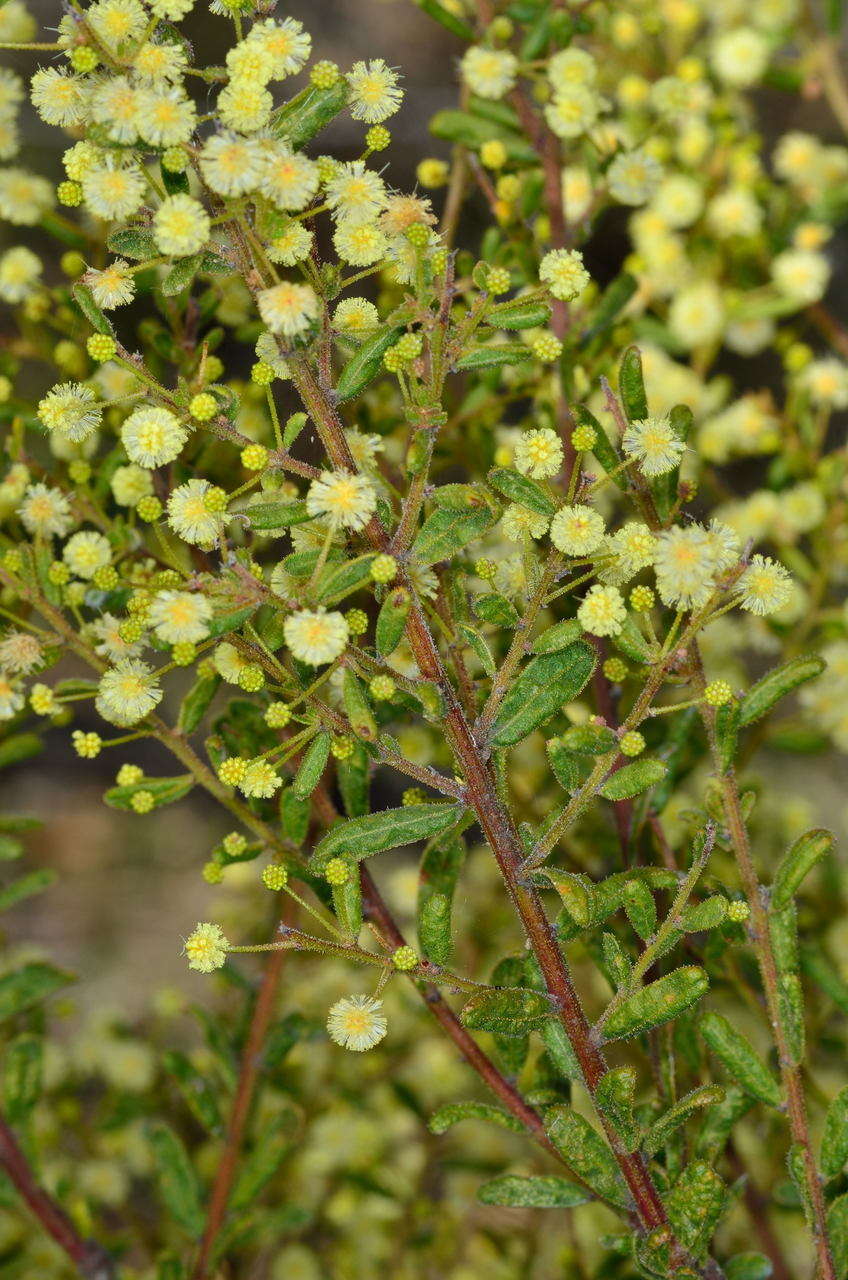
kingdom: Plantae
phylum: Tracheophyta
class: Magnoliopsida
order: Fabales
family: Fabaceae
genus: Acacia
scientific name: Acacia aspera
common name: Rough wattle
